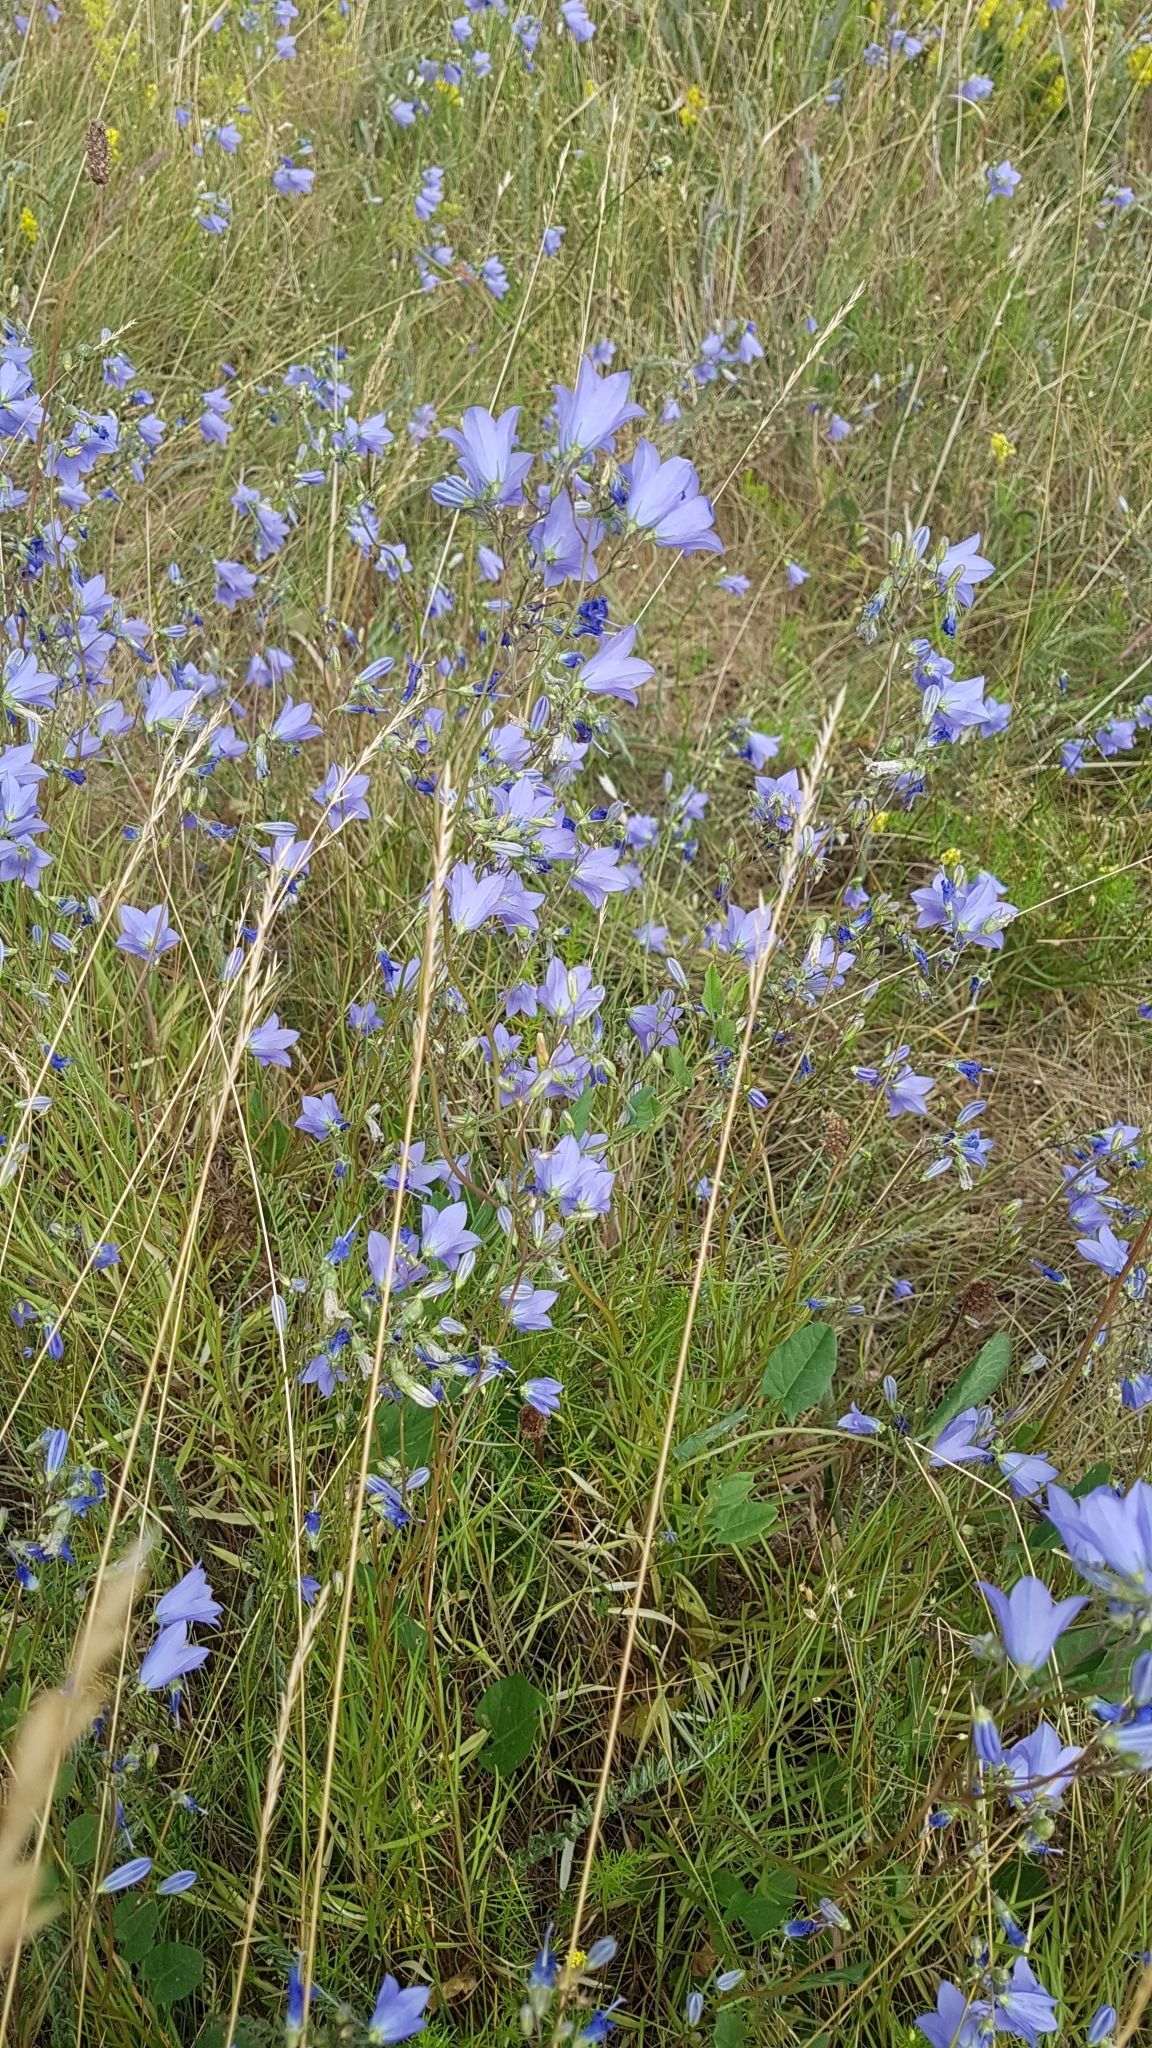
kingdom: Plantae
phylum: Tracheophyta
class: Magnoliopsida
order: Asterales
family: Campanulaceae
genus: Campanula
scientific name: Campanula rotundifolia
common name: Harebell
